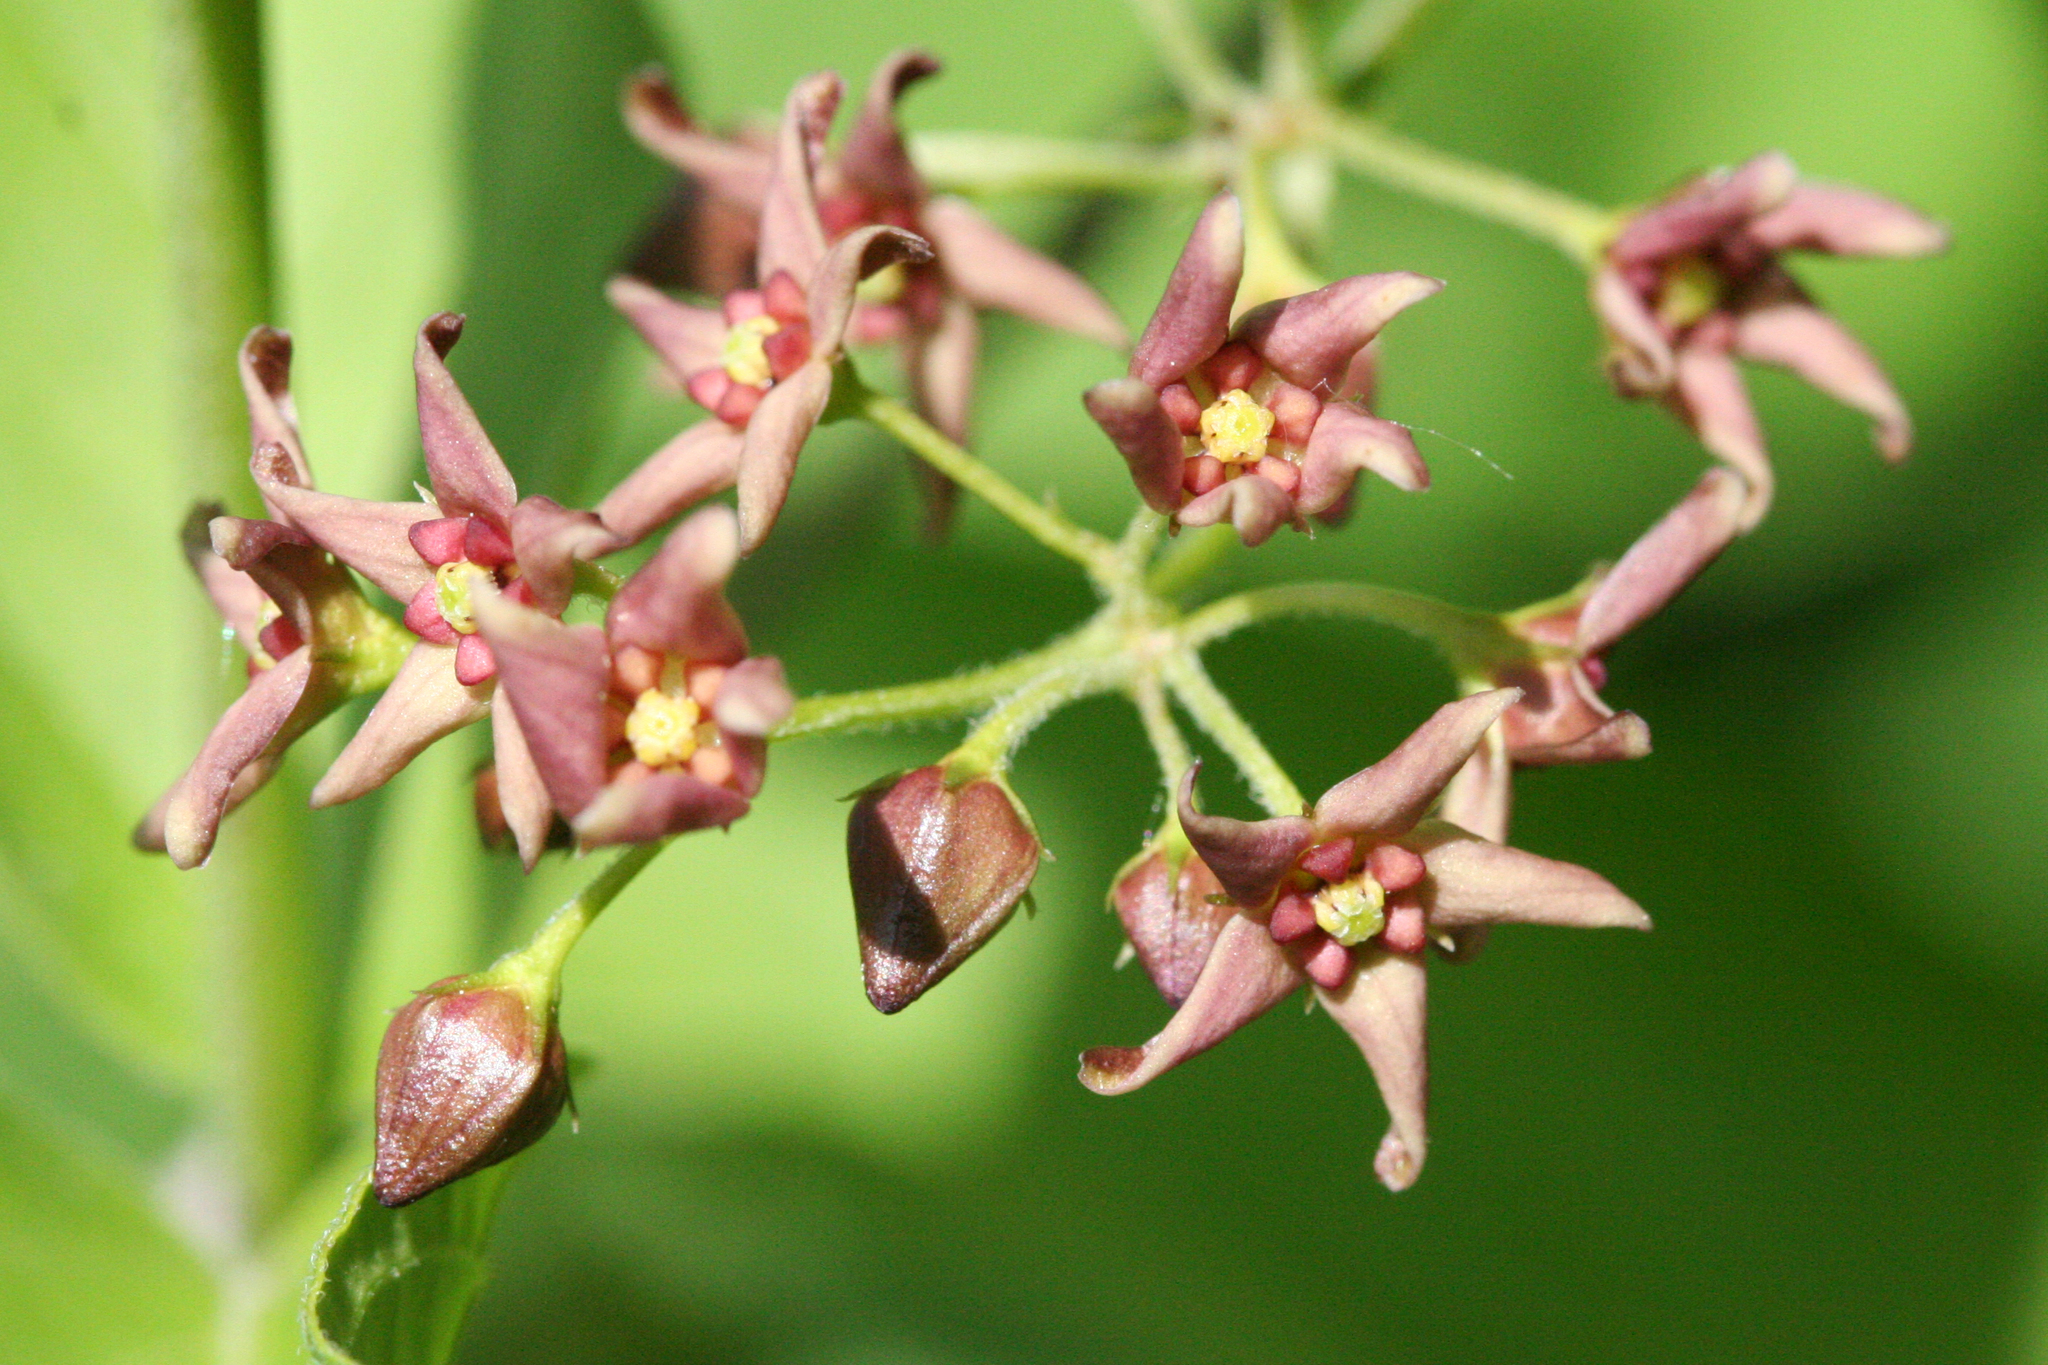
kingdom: Plantae
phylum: Tracheophyta
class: Magnoliopsida
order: Gentianales
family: Apocynaceae
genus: Vincetoxicum
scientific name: Vincetoxicum rossicum
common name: Dog-strangling vine
